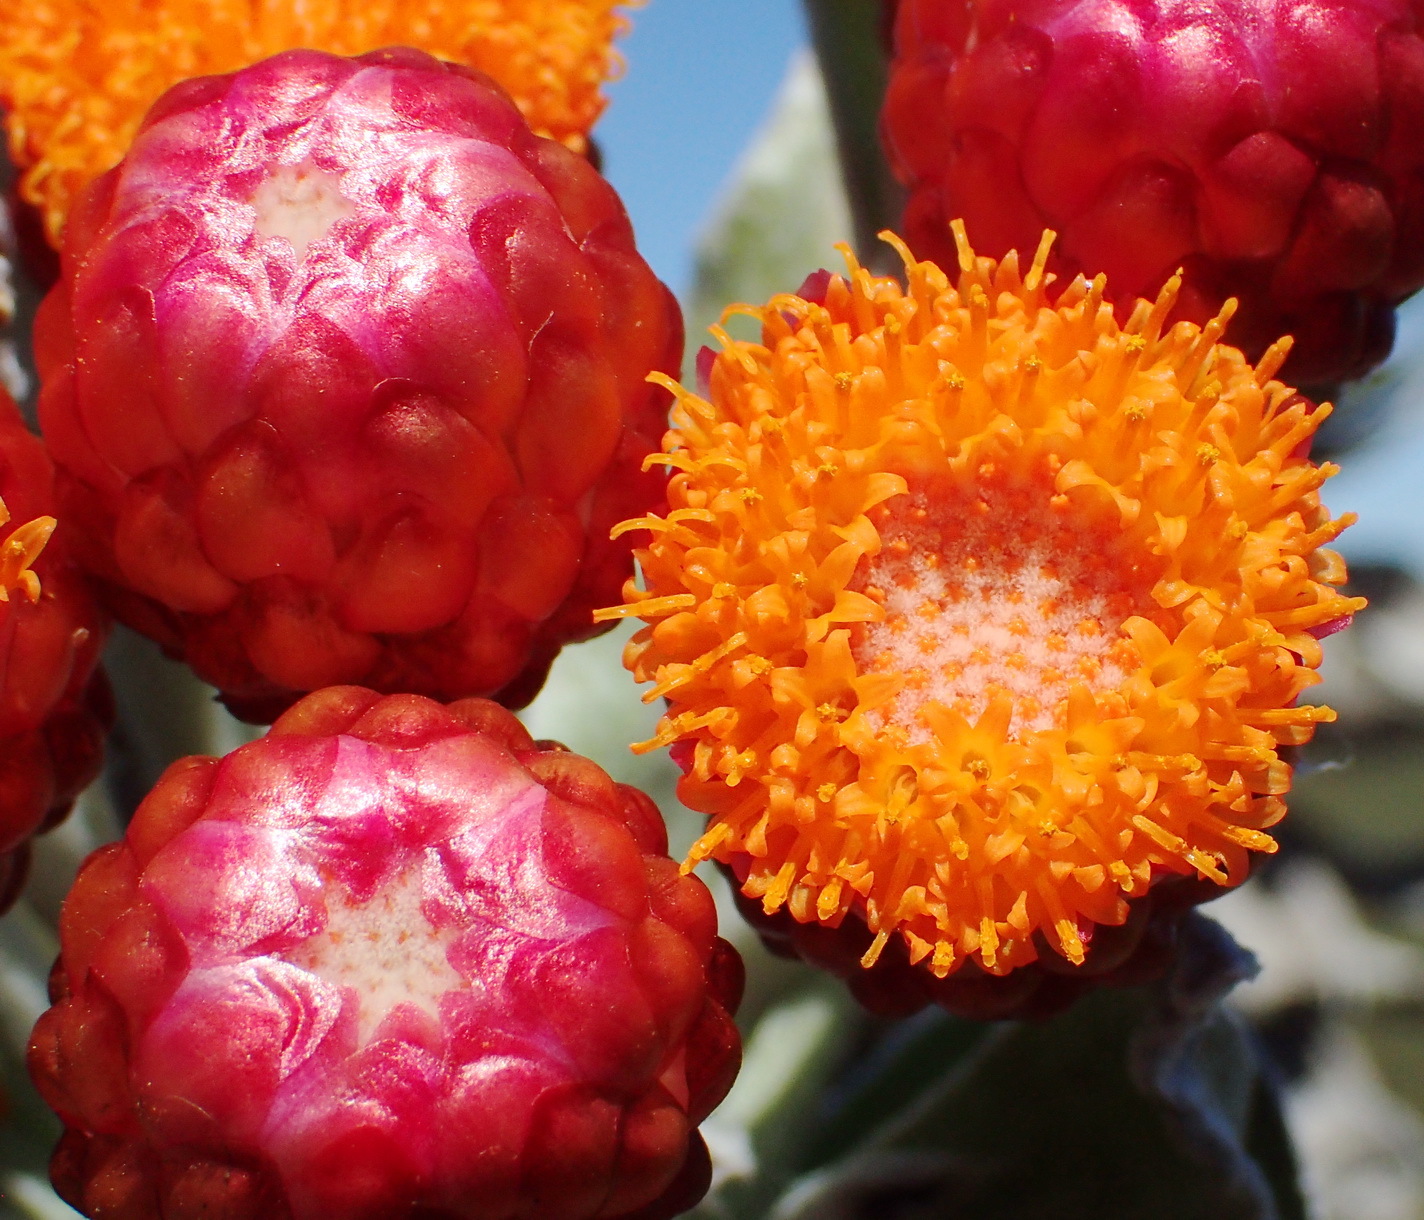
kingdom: Plantae
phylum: Tracheophyta
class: Magnoliopsida
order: Asterales
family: Asteraceae
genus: Syncarpha
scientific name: Syncarpha eximia
